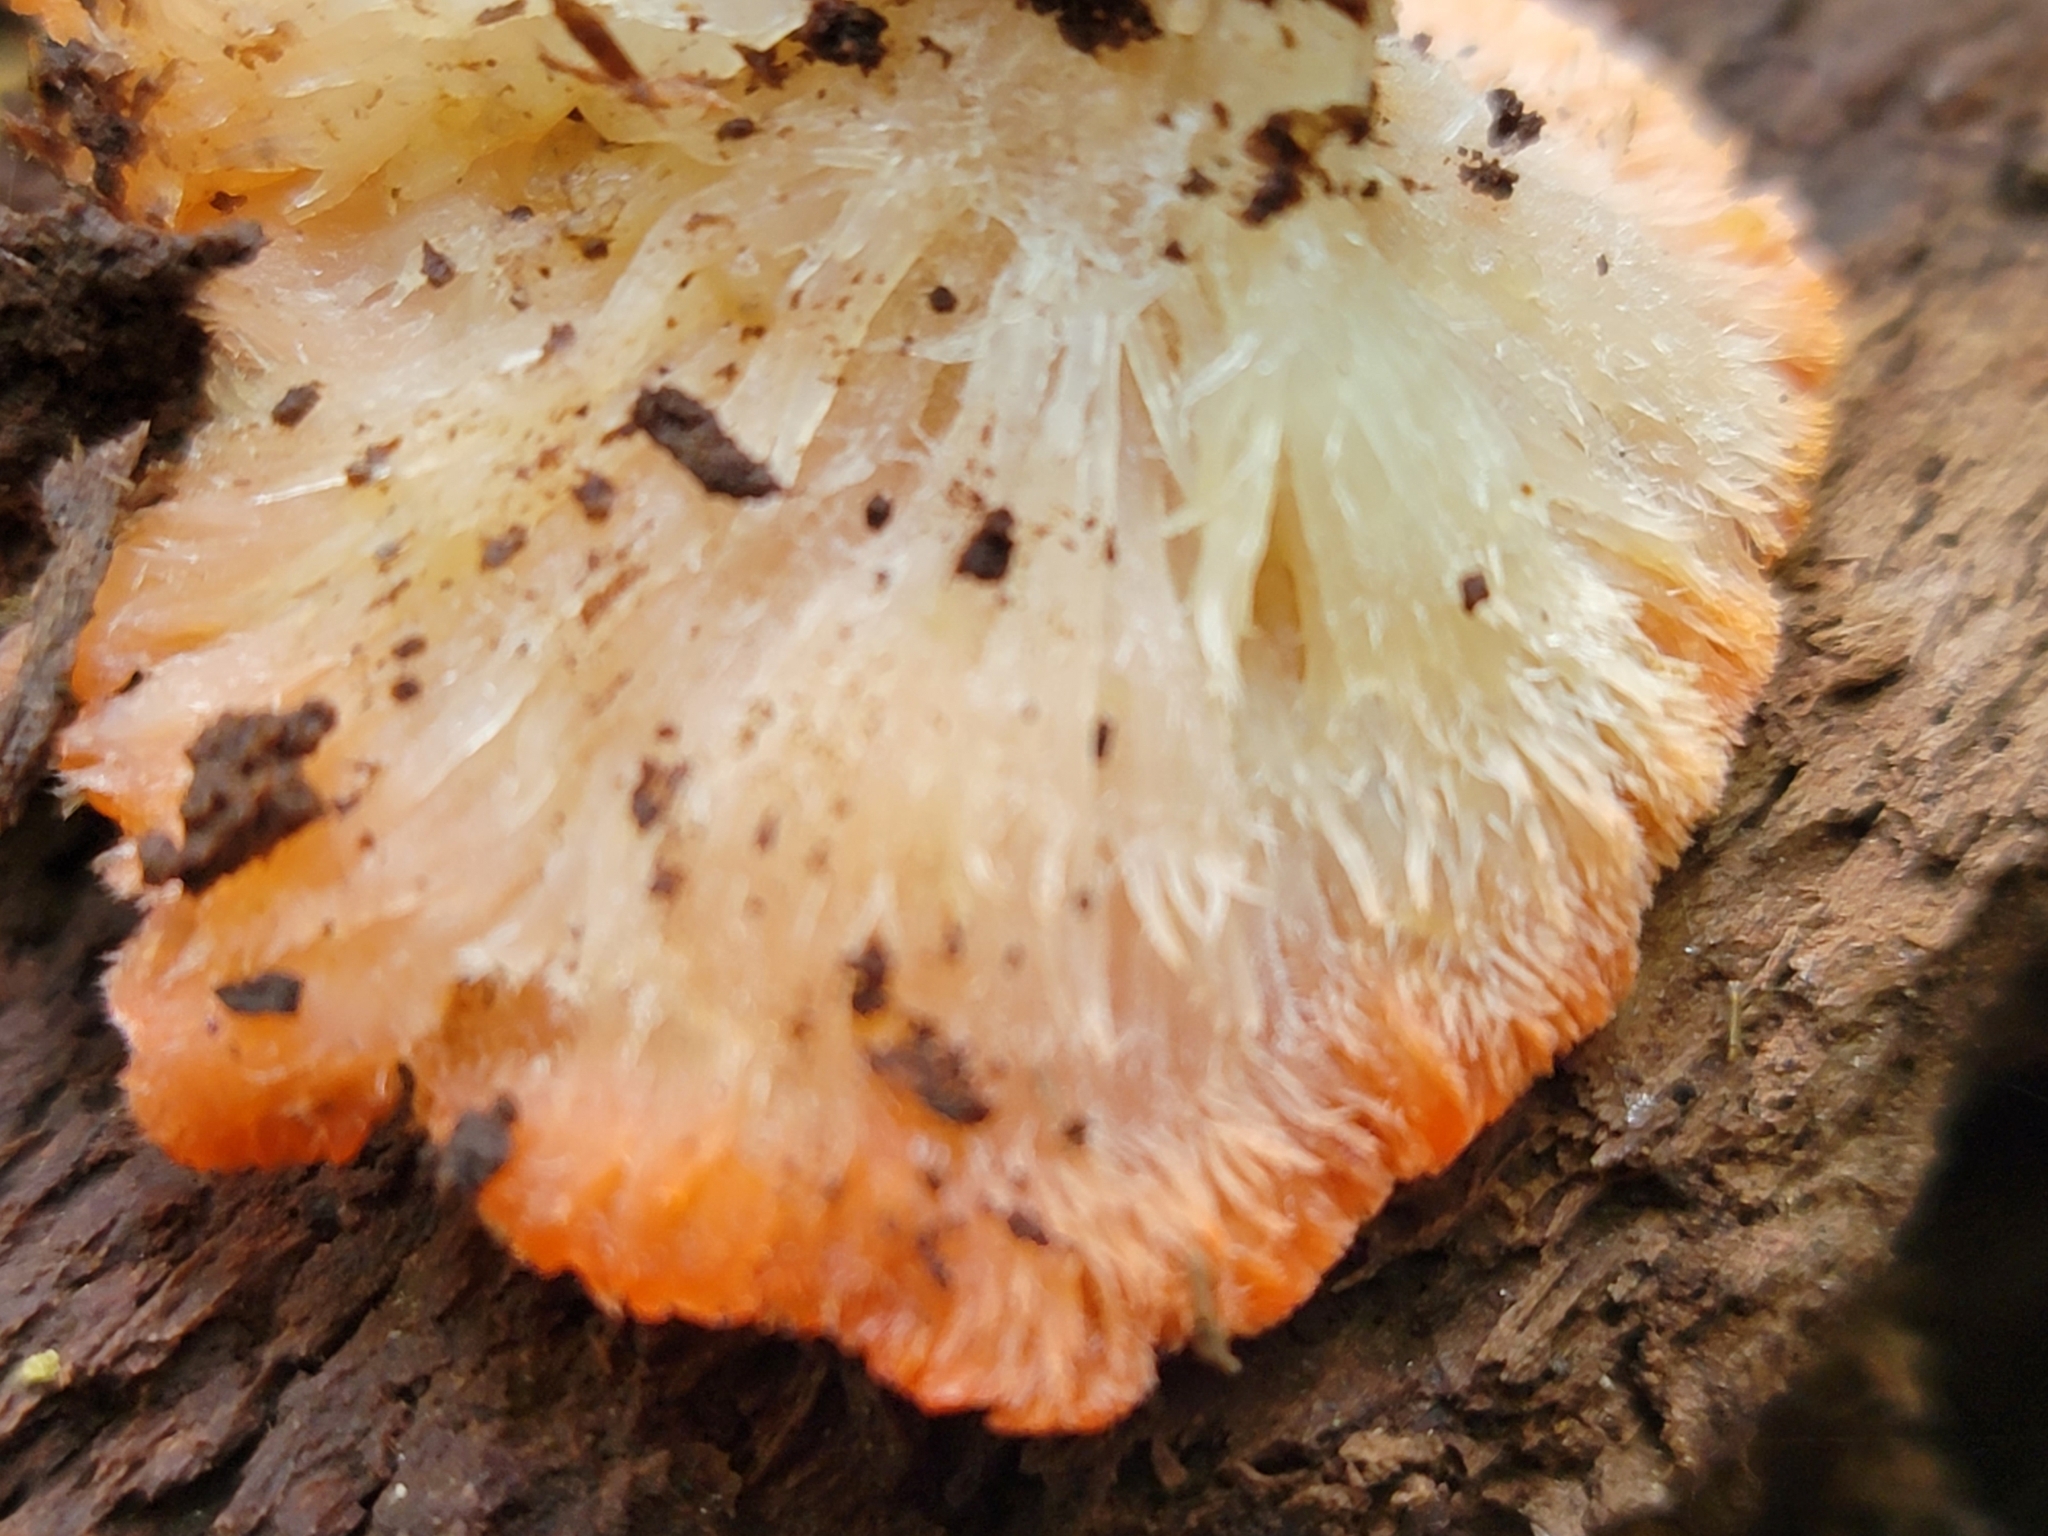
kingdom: Fungi
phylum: Basidiomycota
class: Agaricomycetes
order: Polyporales
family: Incrustoporiaceae
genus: Tyromyces
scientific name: Tyromyces pulcherrimus
